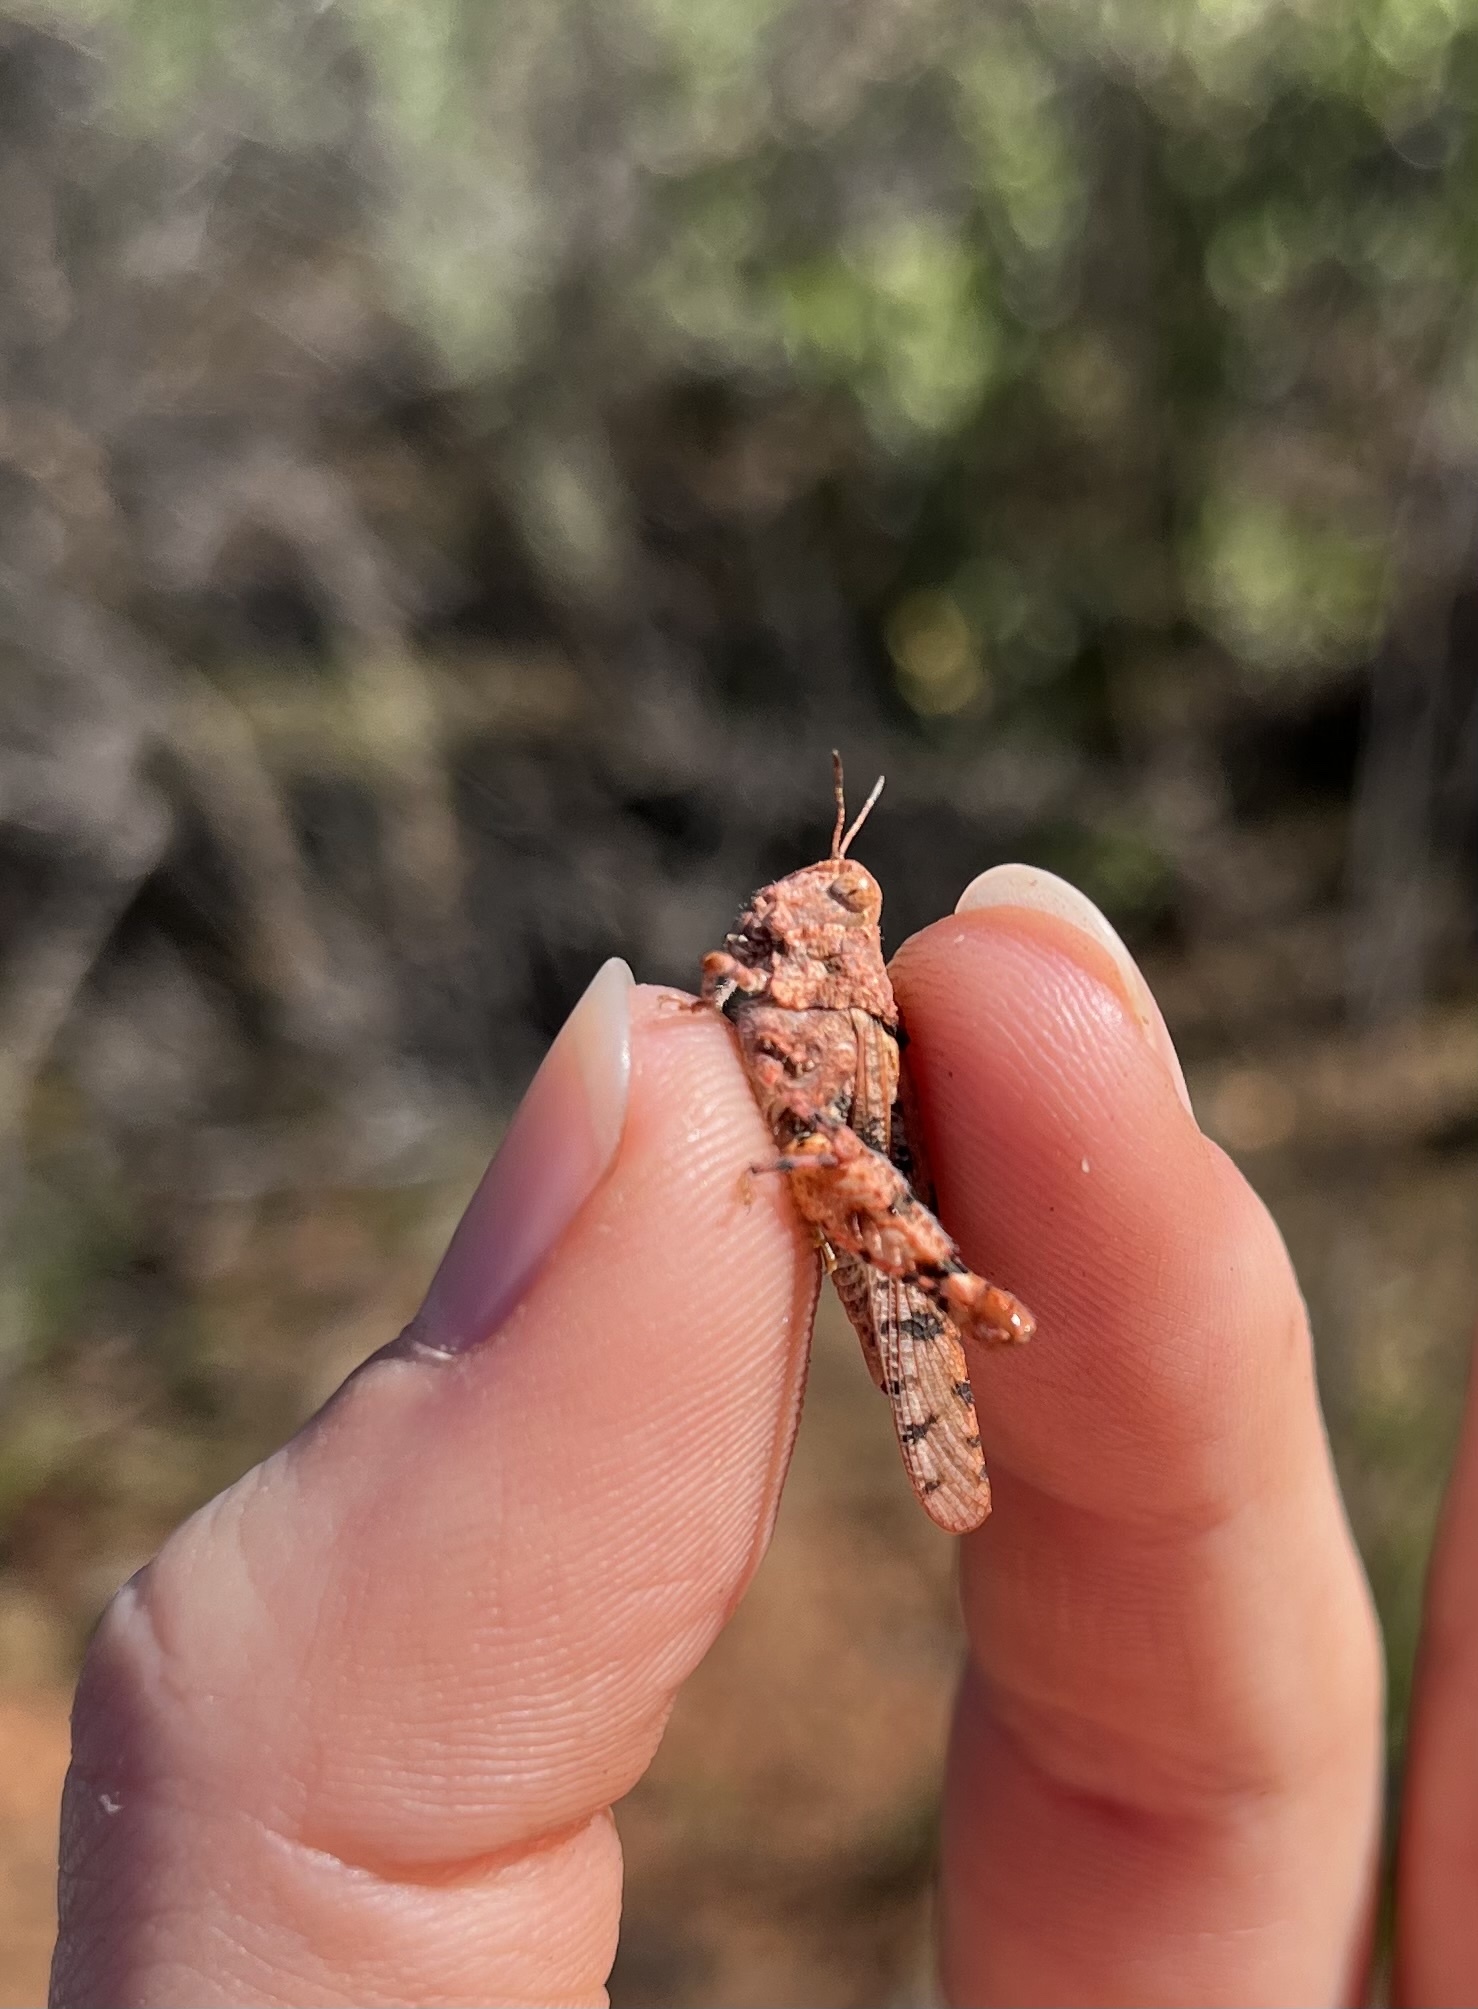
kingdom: Animalia
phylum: Arthropoda
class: Insecta
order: Orthoptera
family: Acrididae
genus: Cibolacris
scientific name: Cibolacris parviceps
